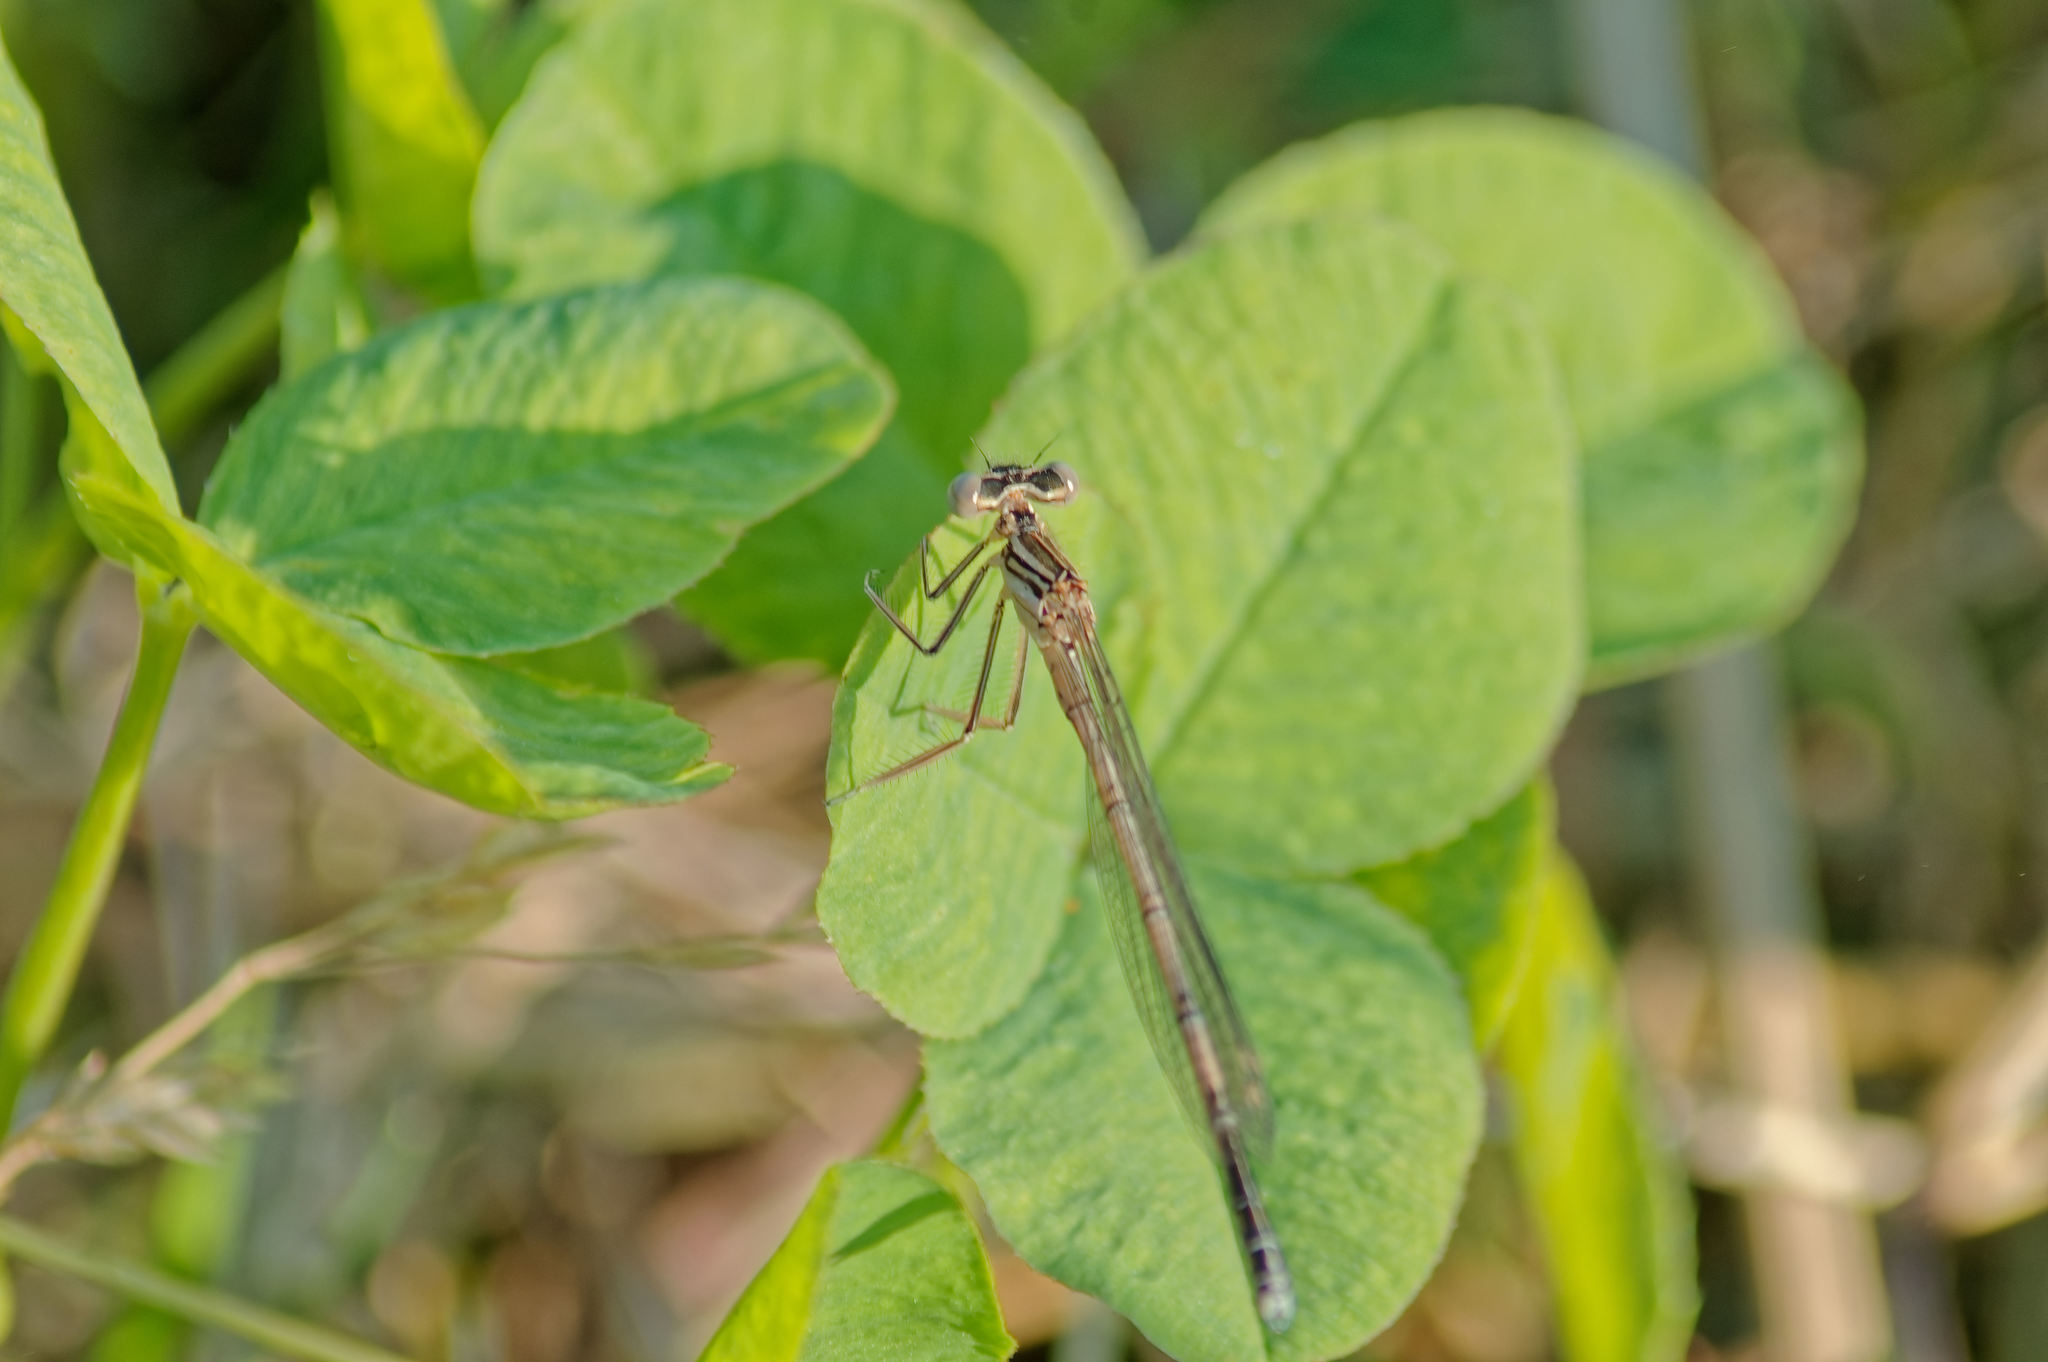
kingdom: Animalia
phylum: Arthropoda
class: Insecta
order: Odonata
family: Platycnemididae
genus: Platycnemis
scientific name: Platycnemis pennipes
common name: White-legged damselfly
